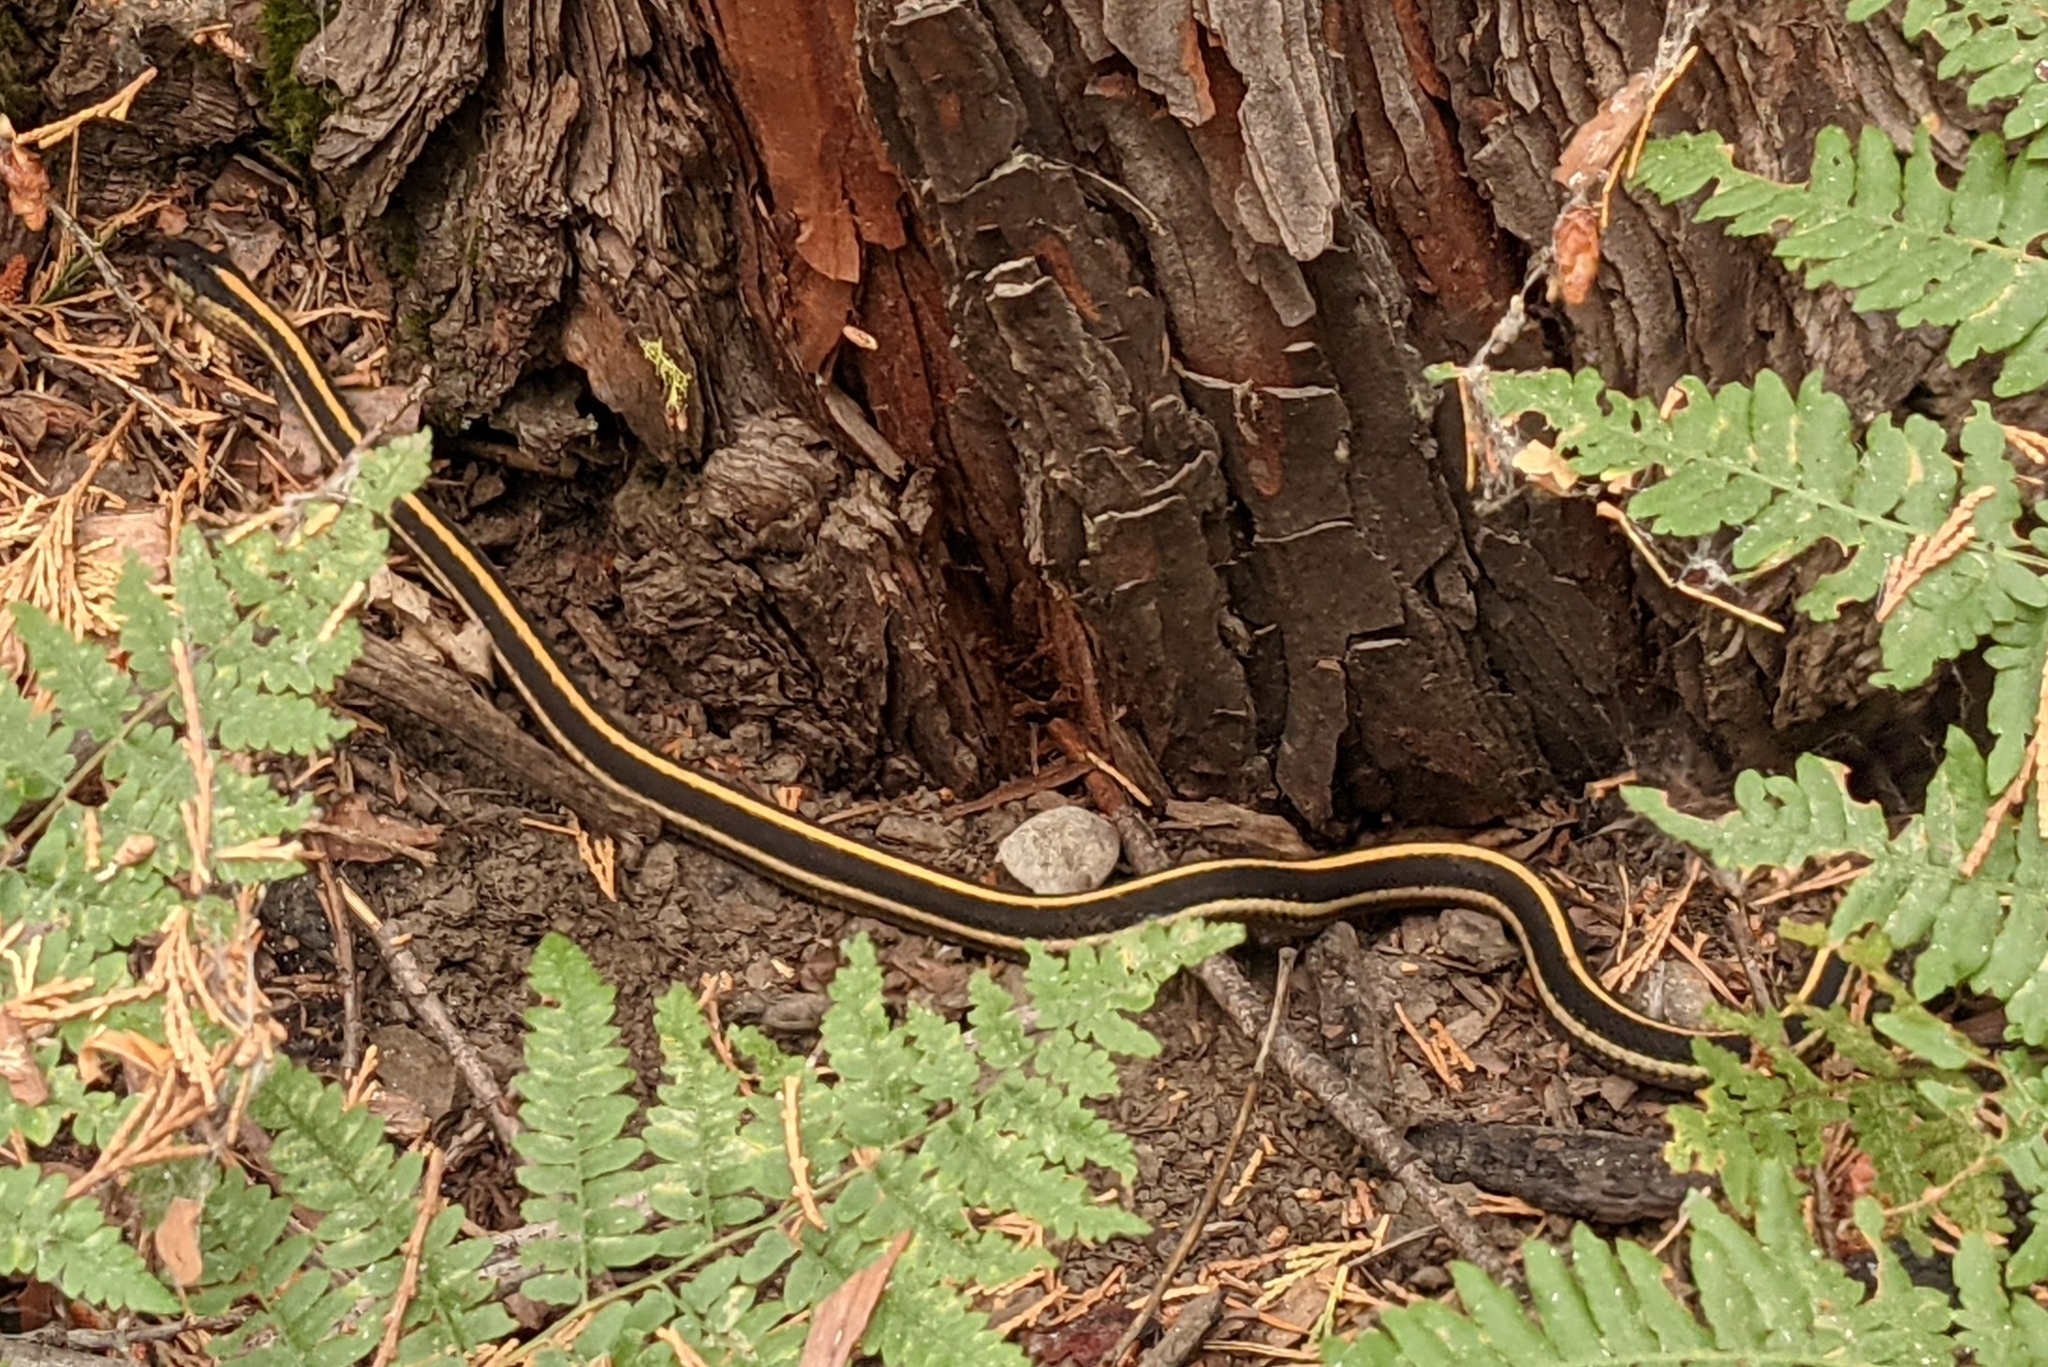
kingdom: Animalia
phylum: Chordata
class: Squamata
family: Colubridae
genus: Thamnophis
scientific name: Thamnophis elegans
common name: Western terrestrial garter snake
